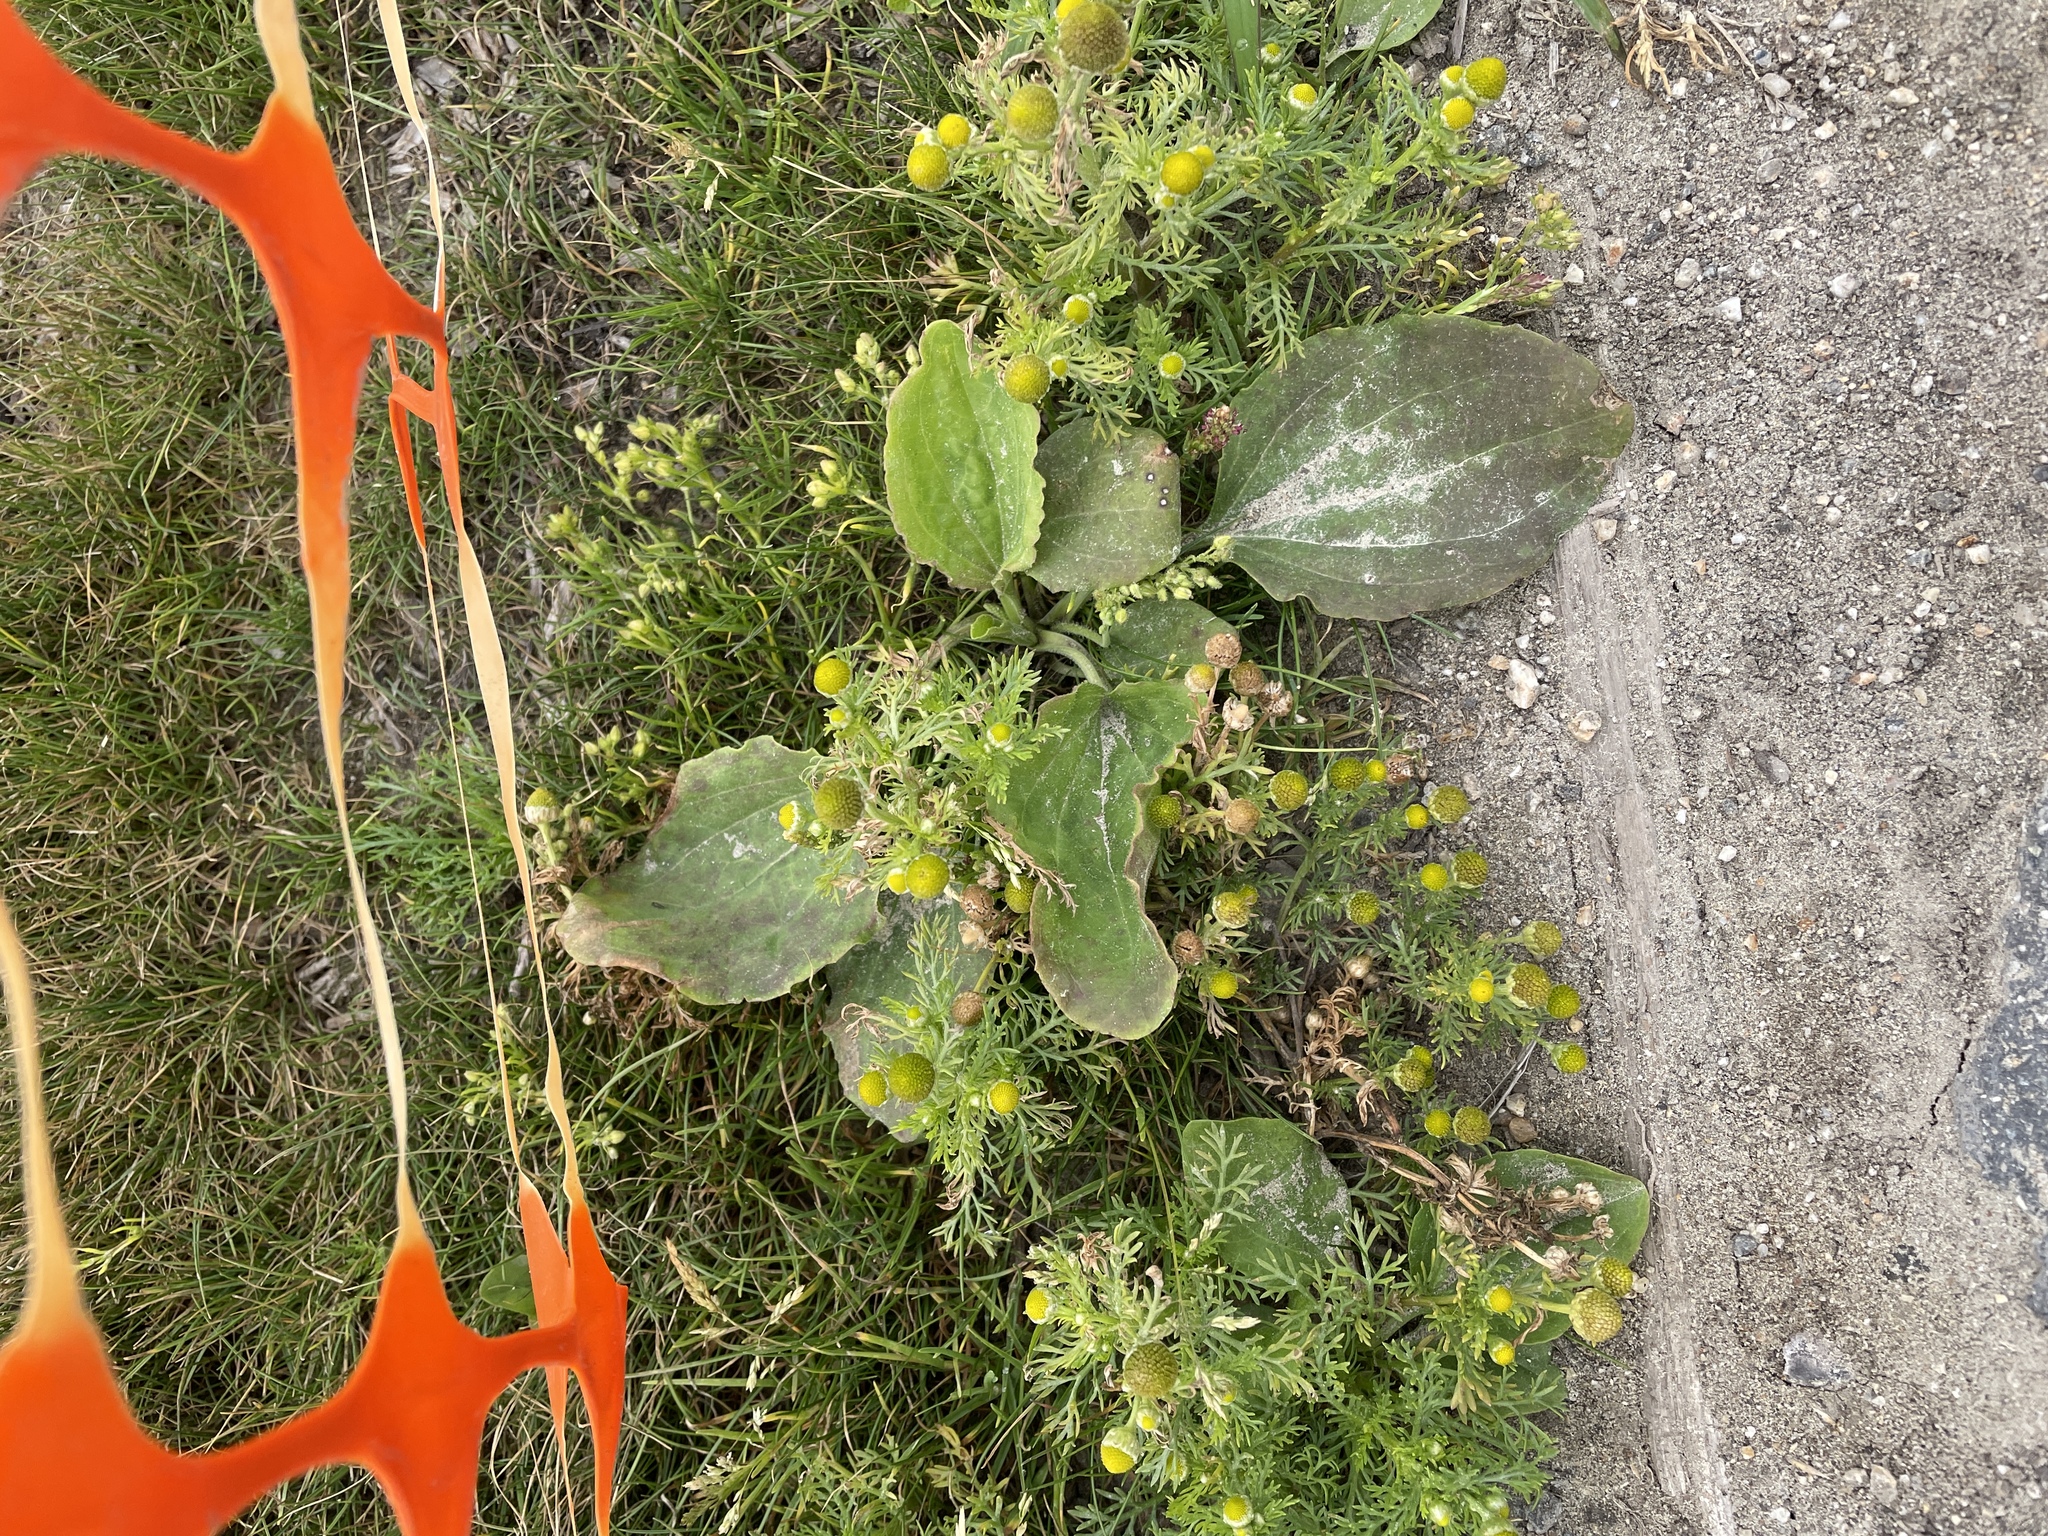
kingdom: Plantae
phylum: Tracheophyta
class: Magnoliopsida
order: Lamiales
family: Plantaginaceae
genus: Plantago
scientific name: Plantago major
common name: Common plantain
